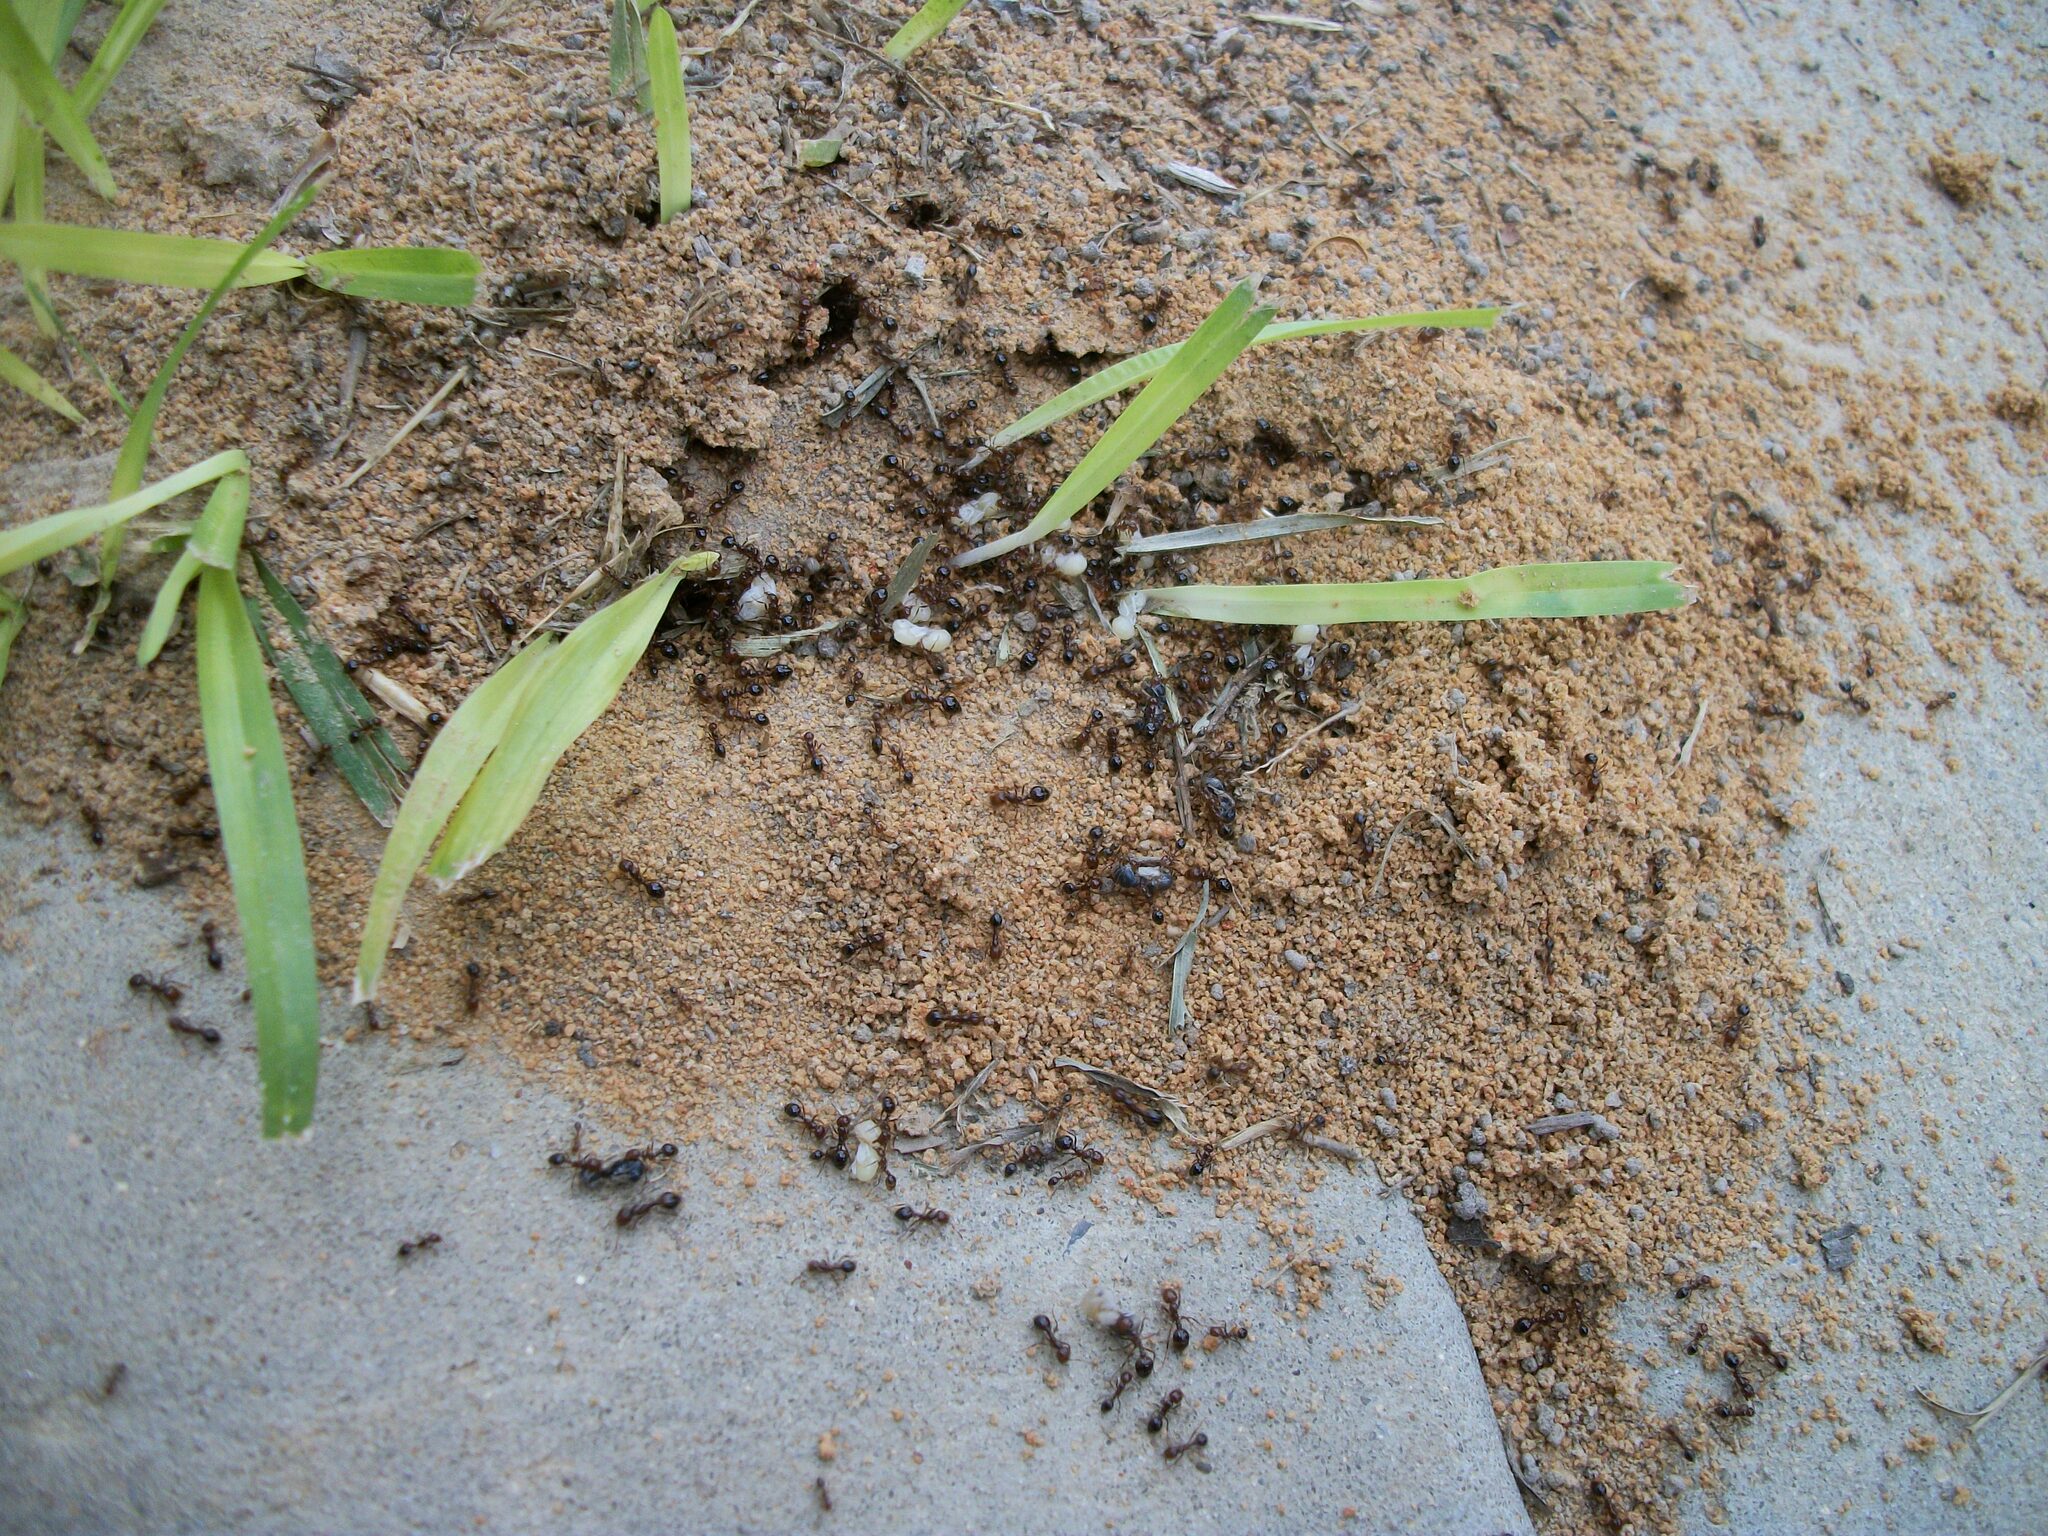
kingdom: Animalia
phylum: Arthropoda
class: Insecta
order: Hymenoptera
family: Formicidae
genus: Solenopsis
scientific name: Solenopsis invicta
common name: Red imported fire ant
